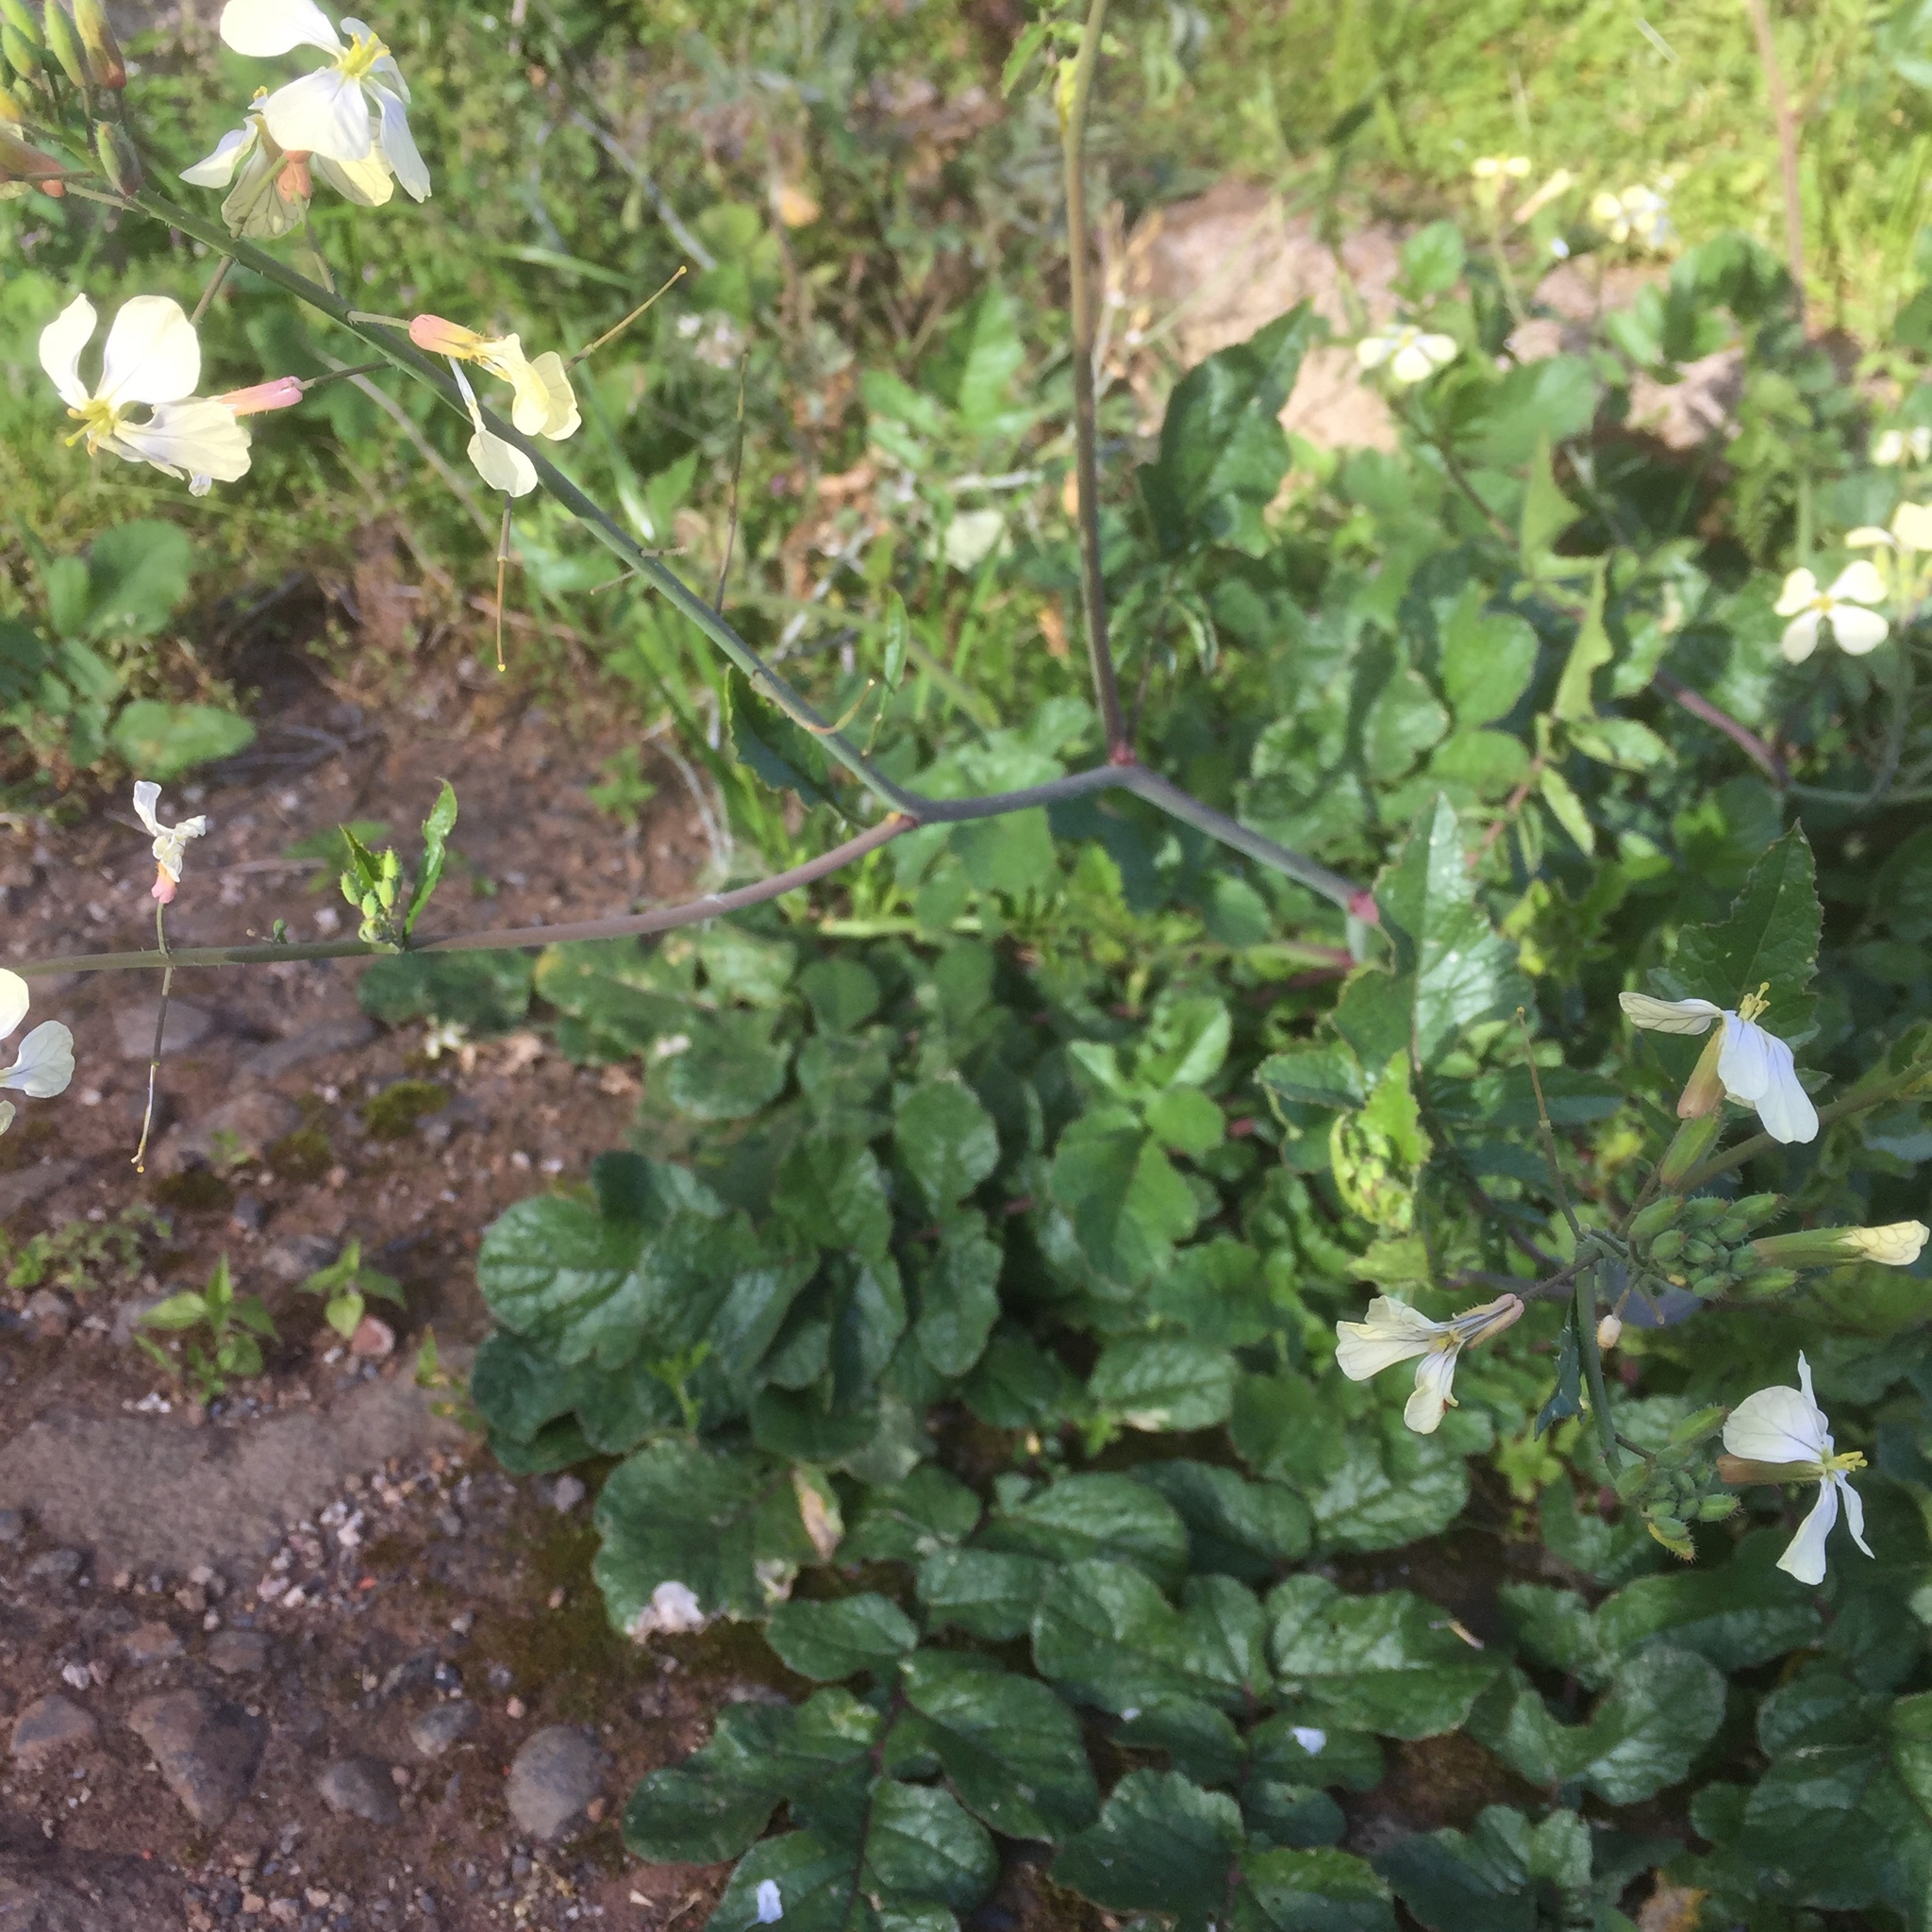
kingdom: Plantae
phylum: Tracheophyta
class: Magnoliopsida
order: Brassicales
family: Brassicaceae
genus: Raphanus
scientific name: Raphanus raphanistrum
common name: Wild radish
